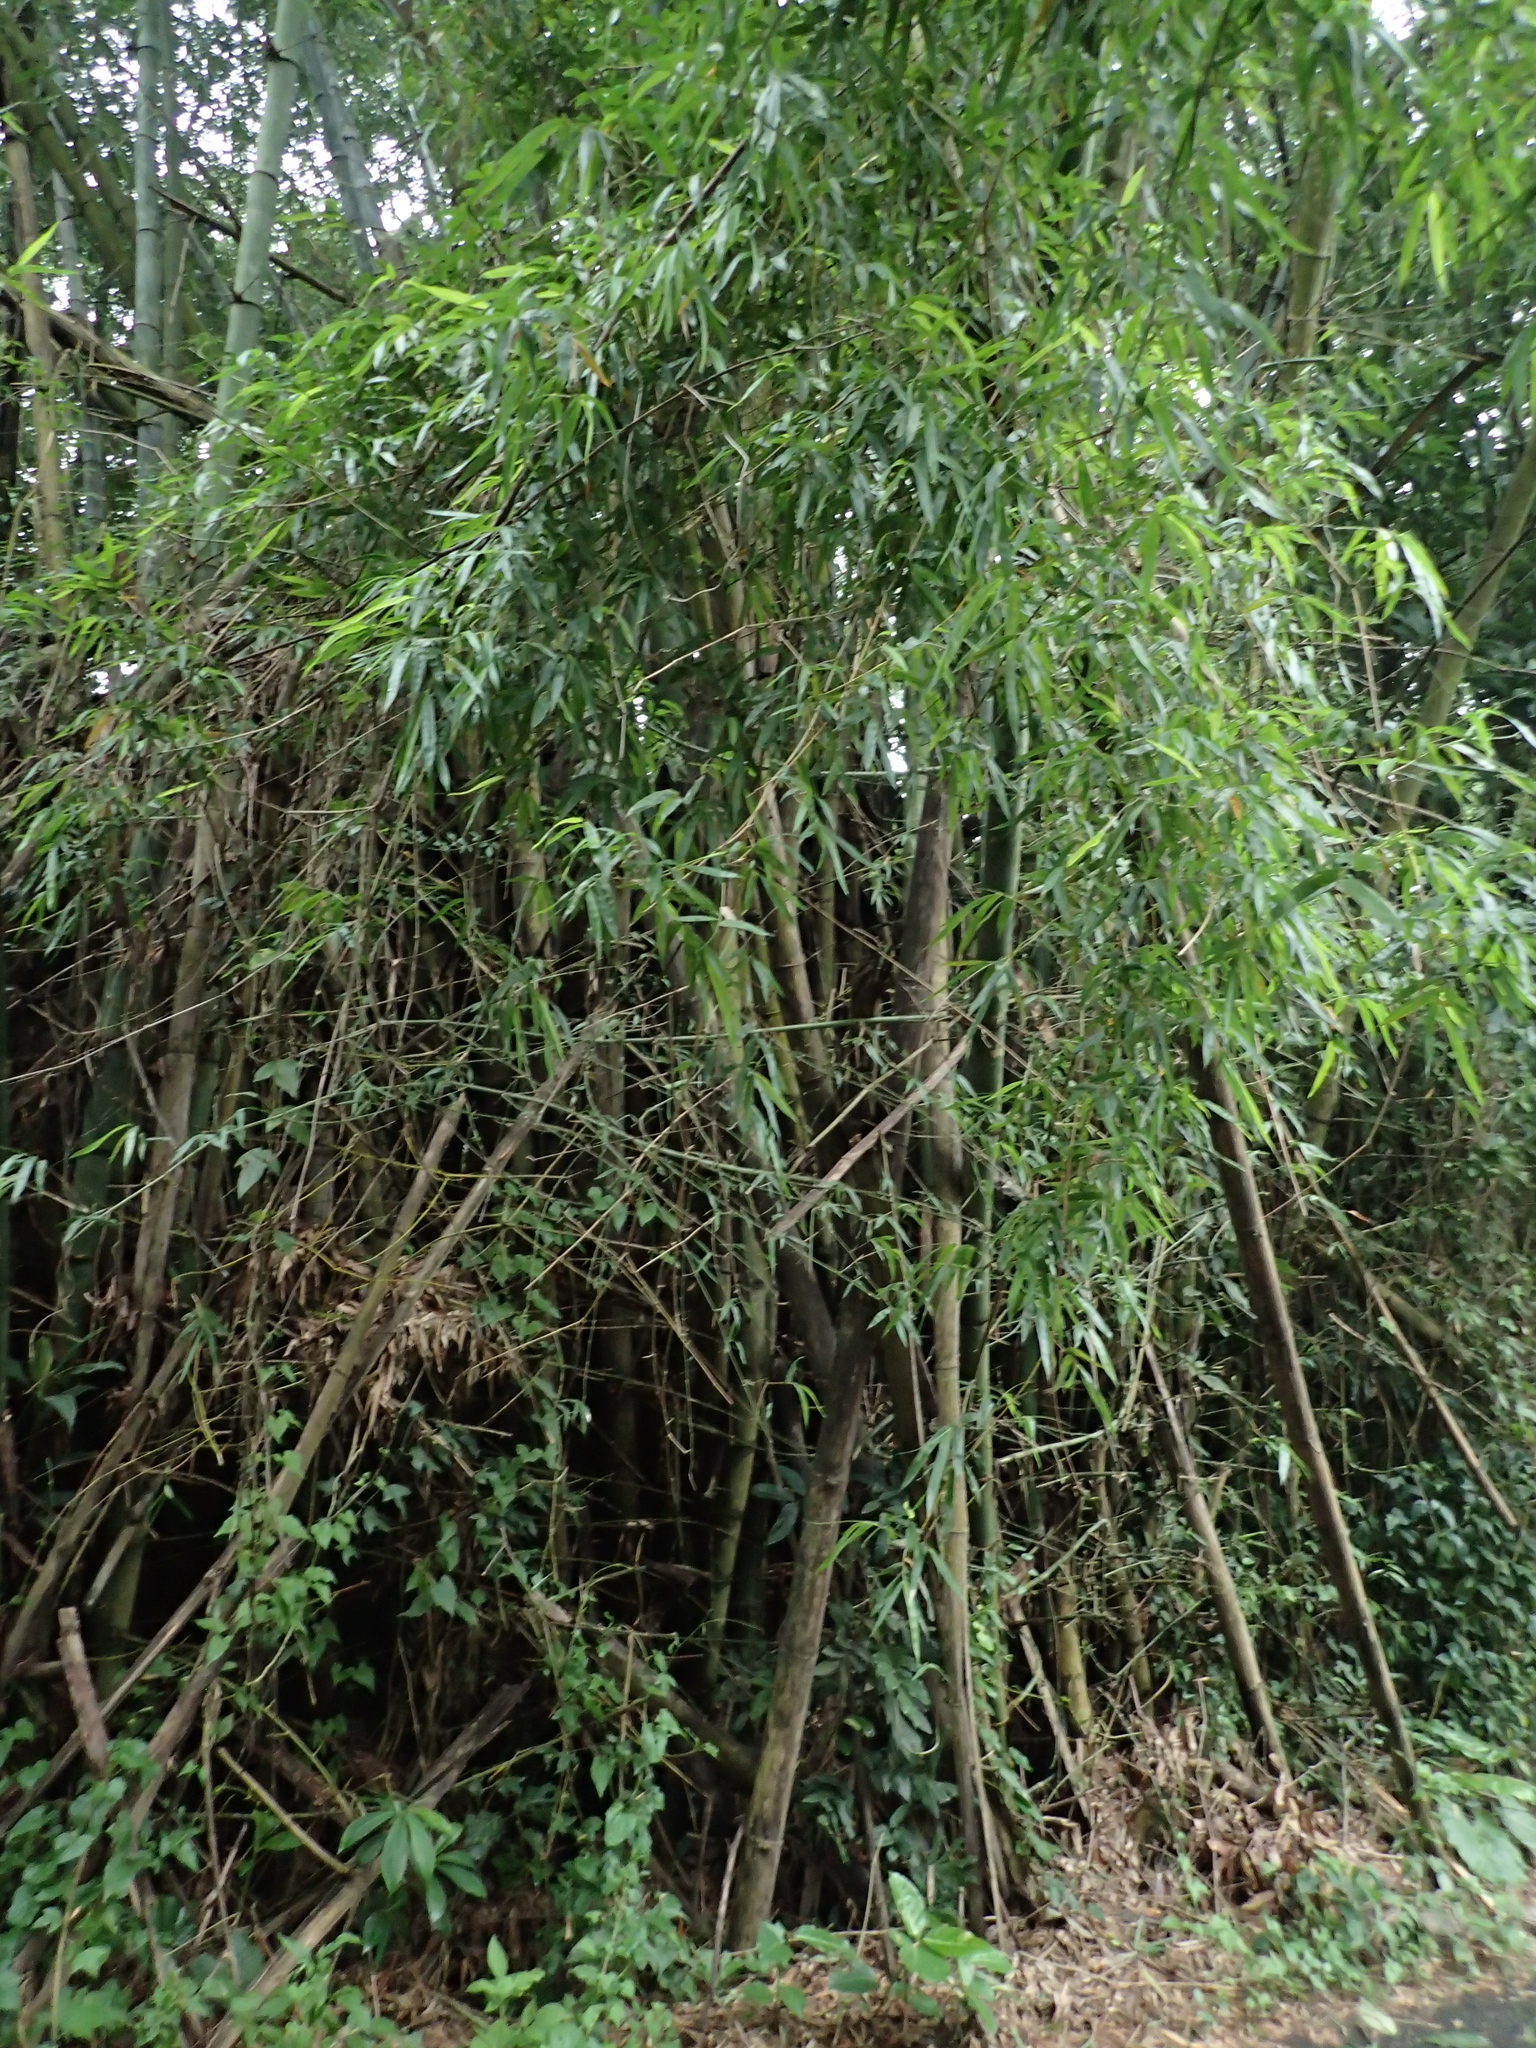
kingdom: Plantae
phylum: Tracheophyta
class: Liliopsida
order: Poales
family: Poaceae
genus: Bambusa
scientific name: Bambusa spinosa
